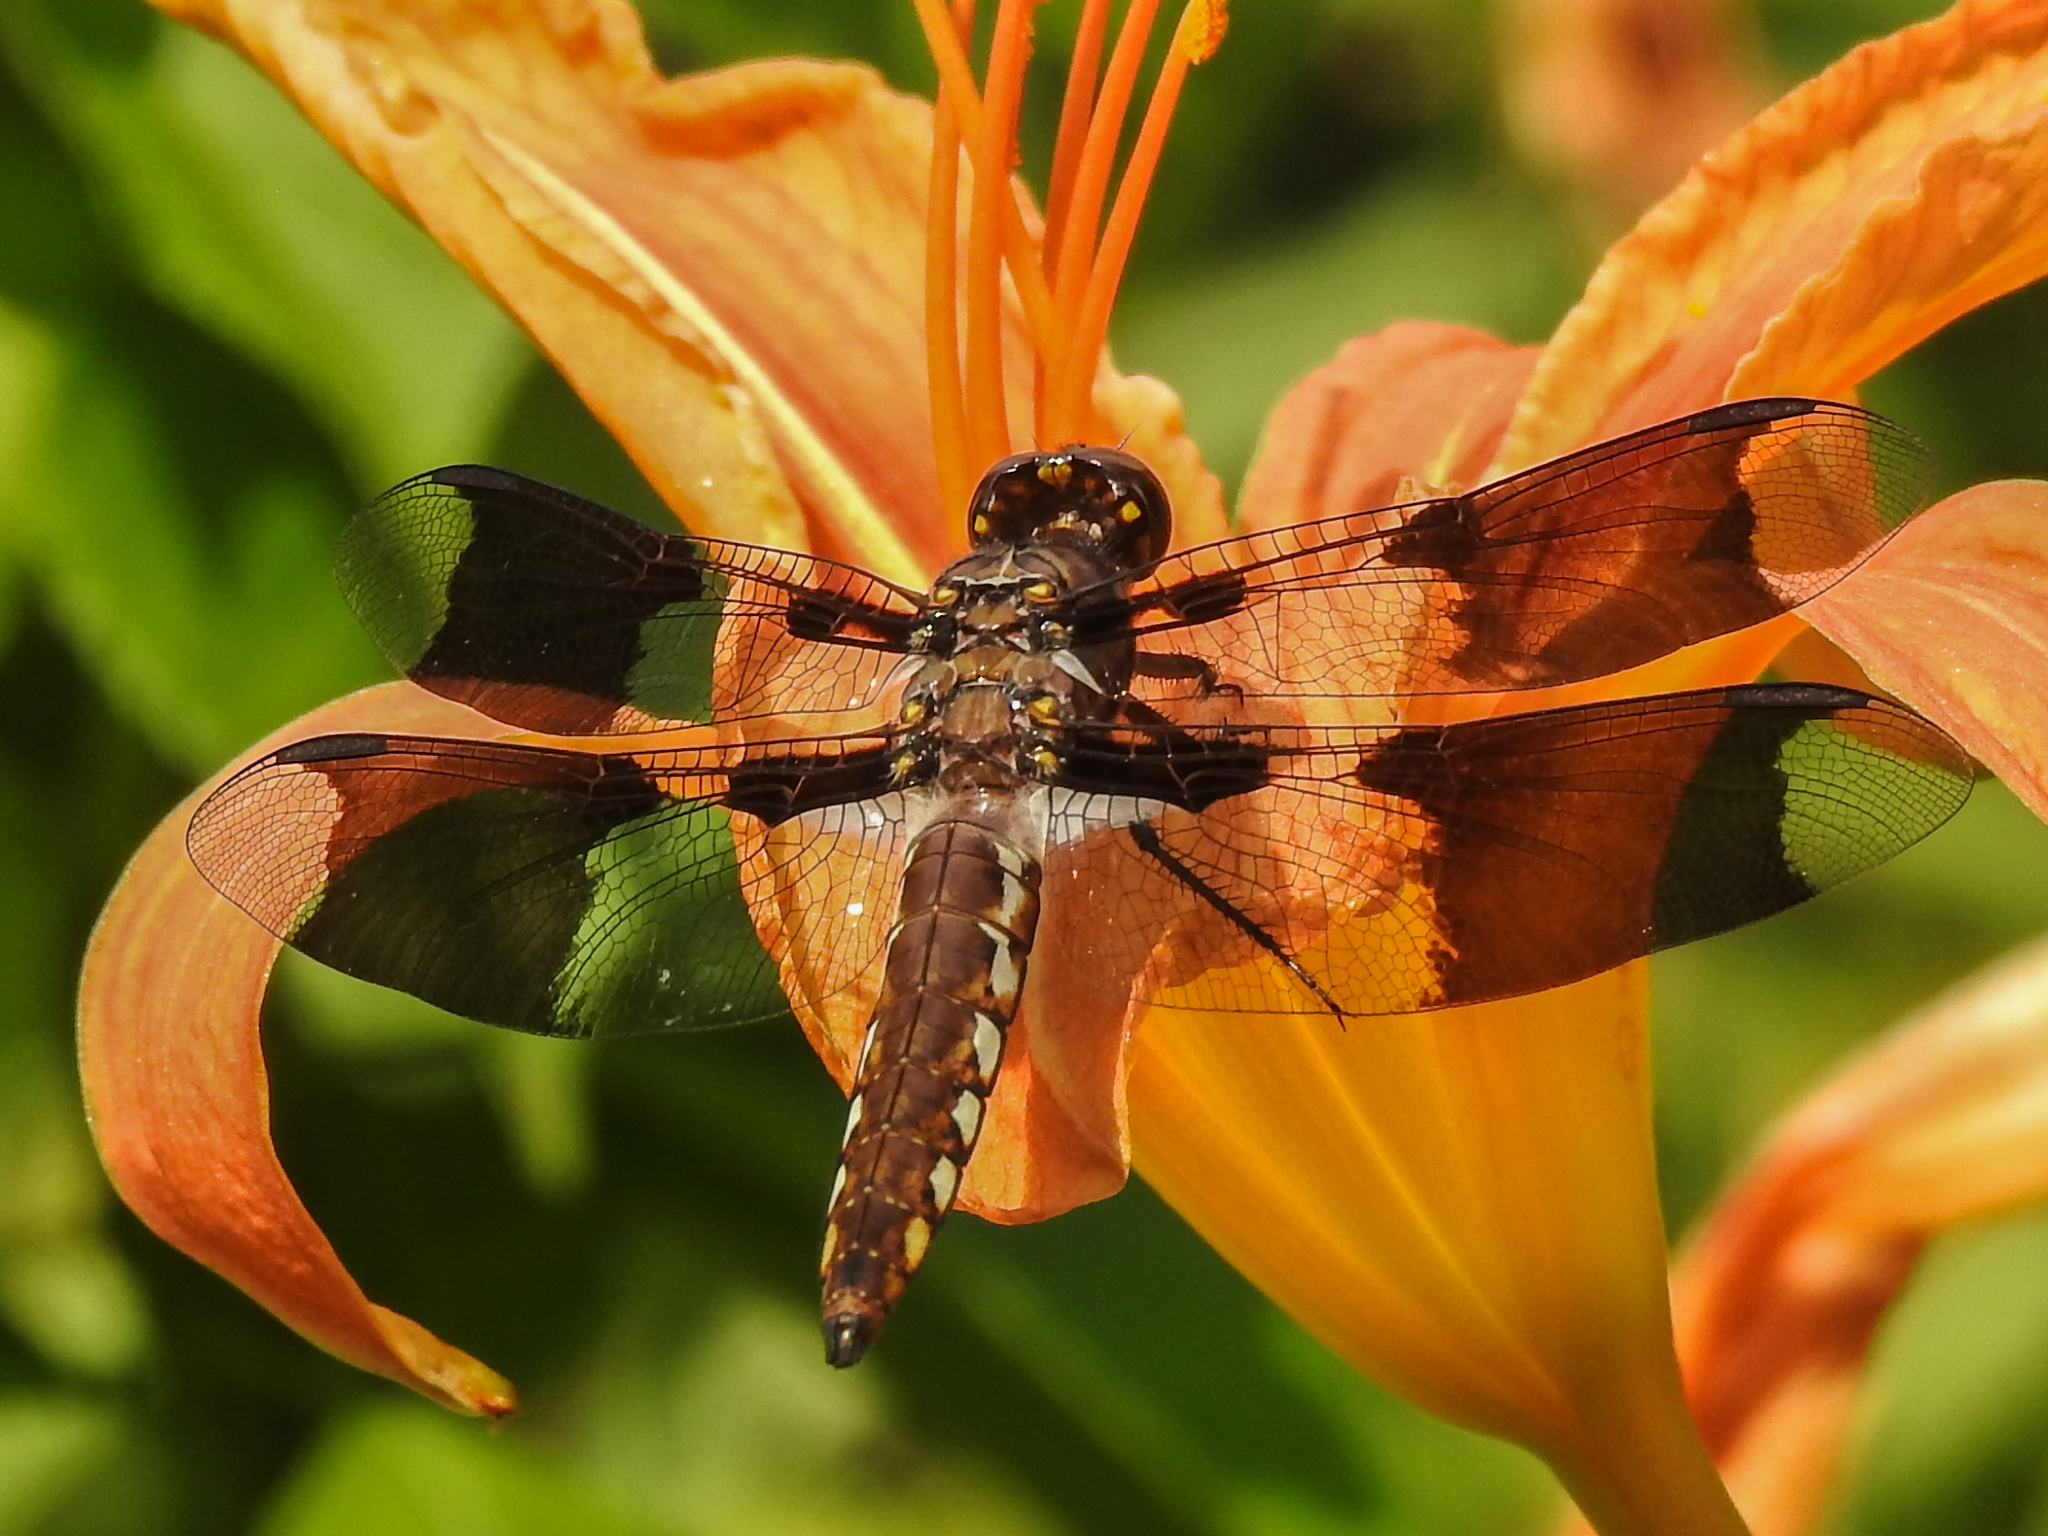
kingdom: Animalia
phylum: Arthropoda
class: Insecta
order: Odonata
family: Libellulidae
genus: Plathemis
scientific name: Plathemis lydia
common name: Common whitetail
